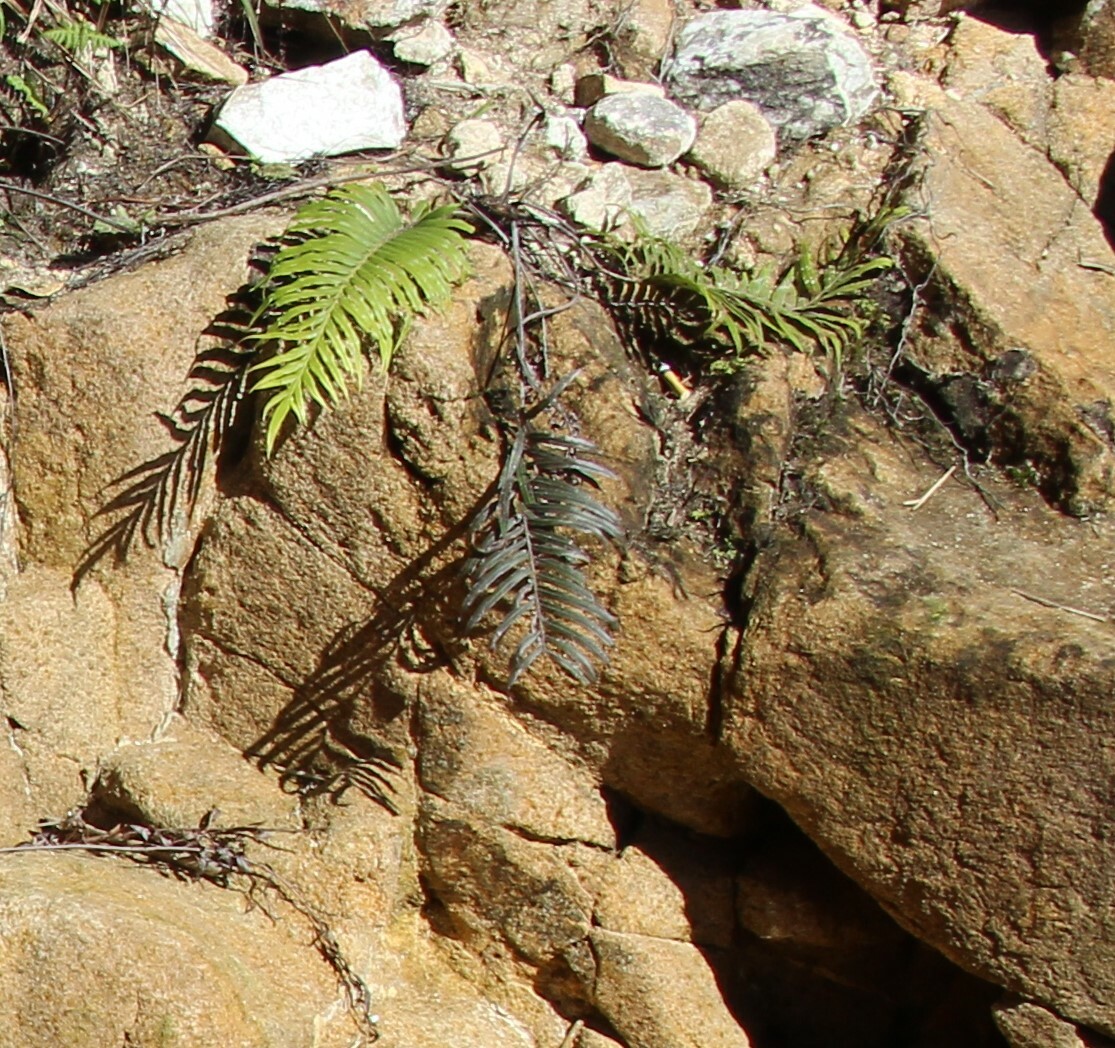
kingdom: Plantae
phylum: Tracheophyta
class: Polypodiopsida
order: Polypodiales
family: Pteridaceae
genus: Pteris
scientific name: Pteris vittata
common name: Ladder brake
